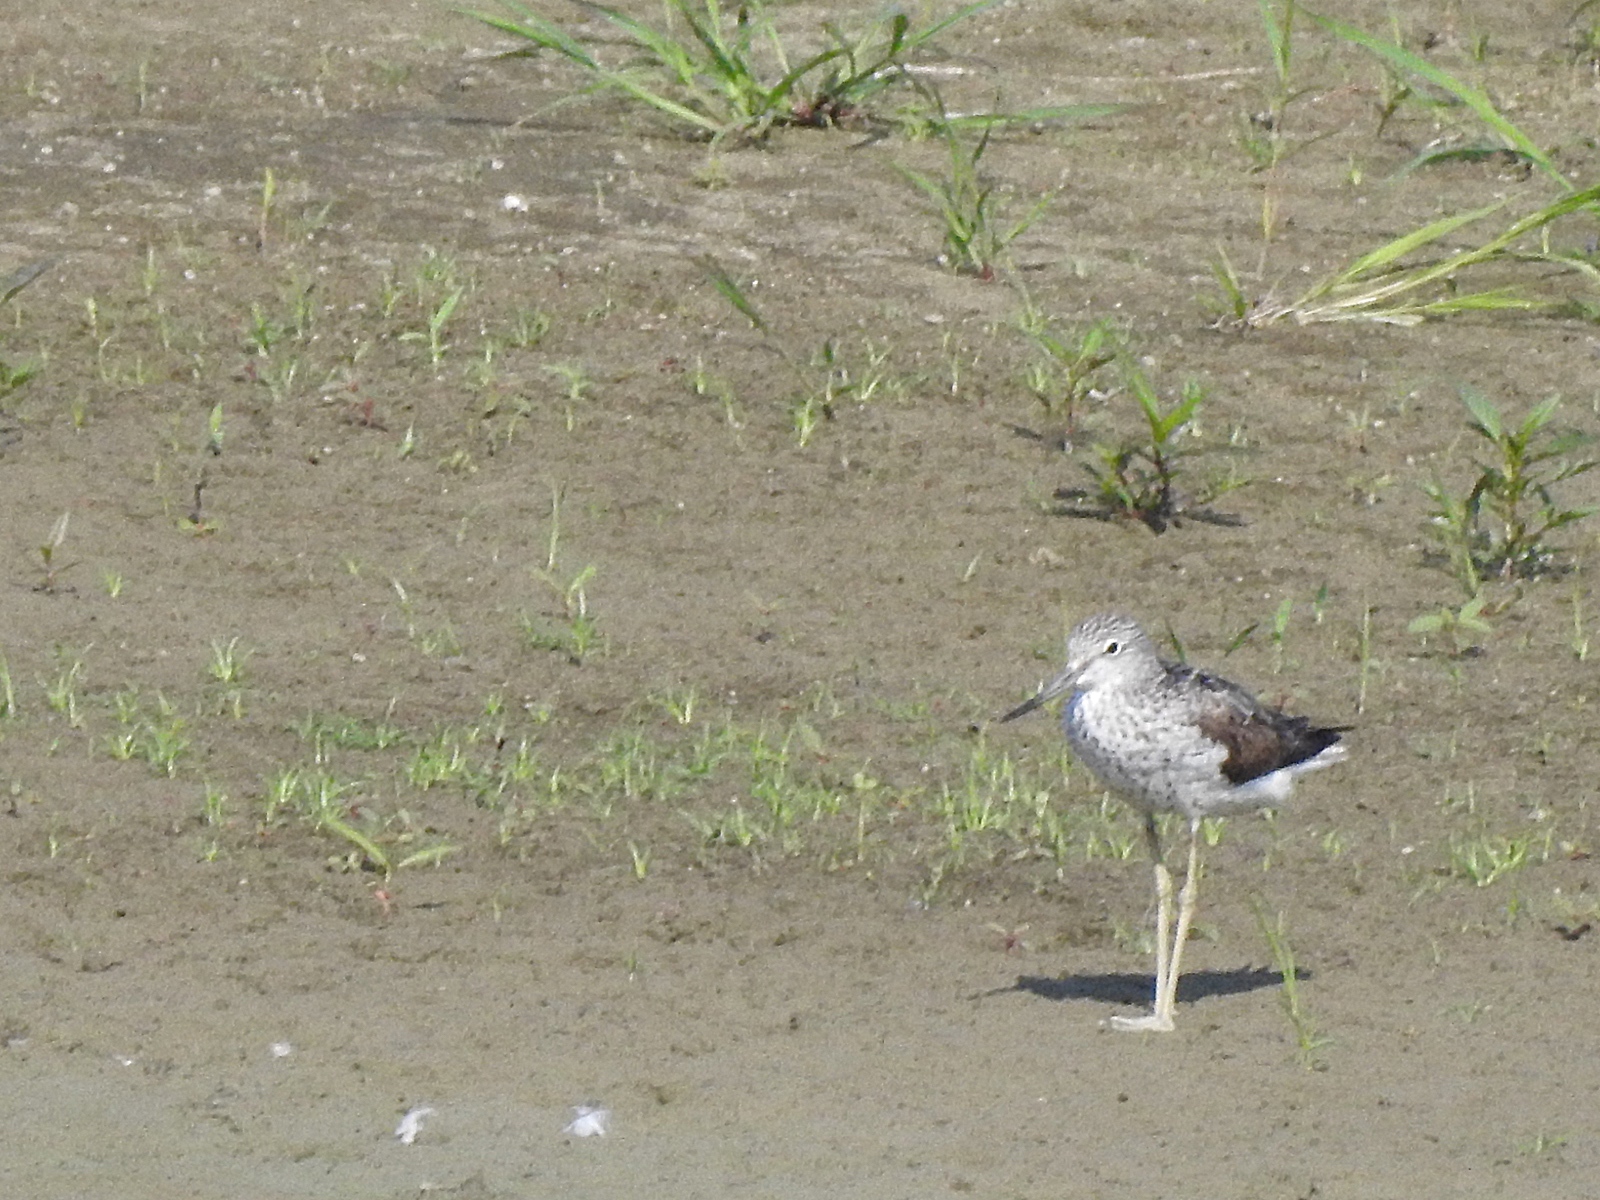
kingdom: Animalia
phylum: Chordata
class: Aves
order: Charadriiformes
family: Scolopacidae
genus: Tringa
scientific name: Tringa nebularia
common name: Common greenshank
